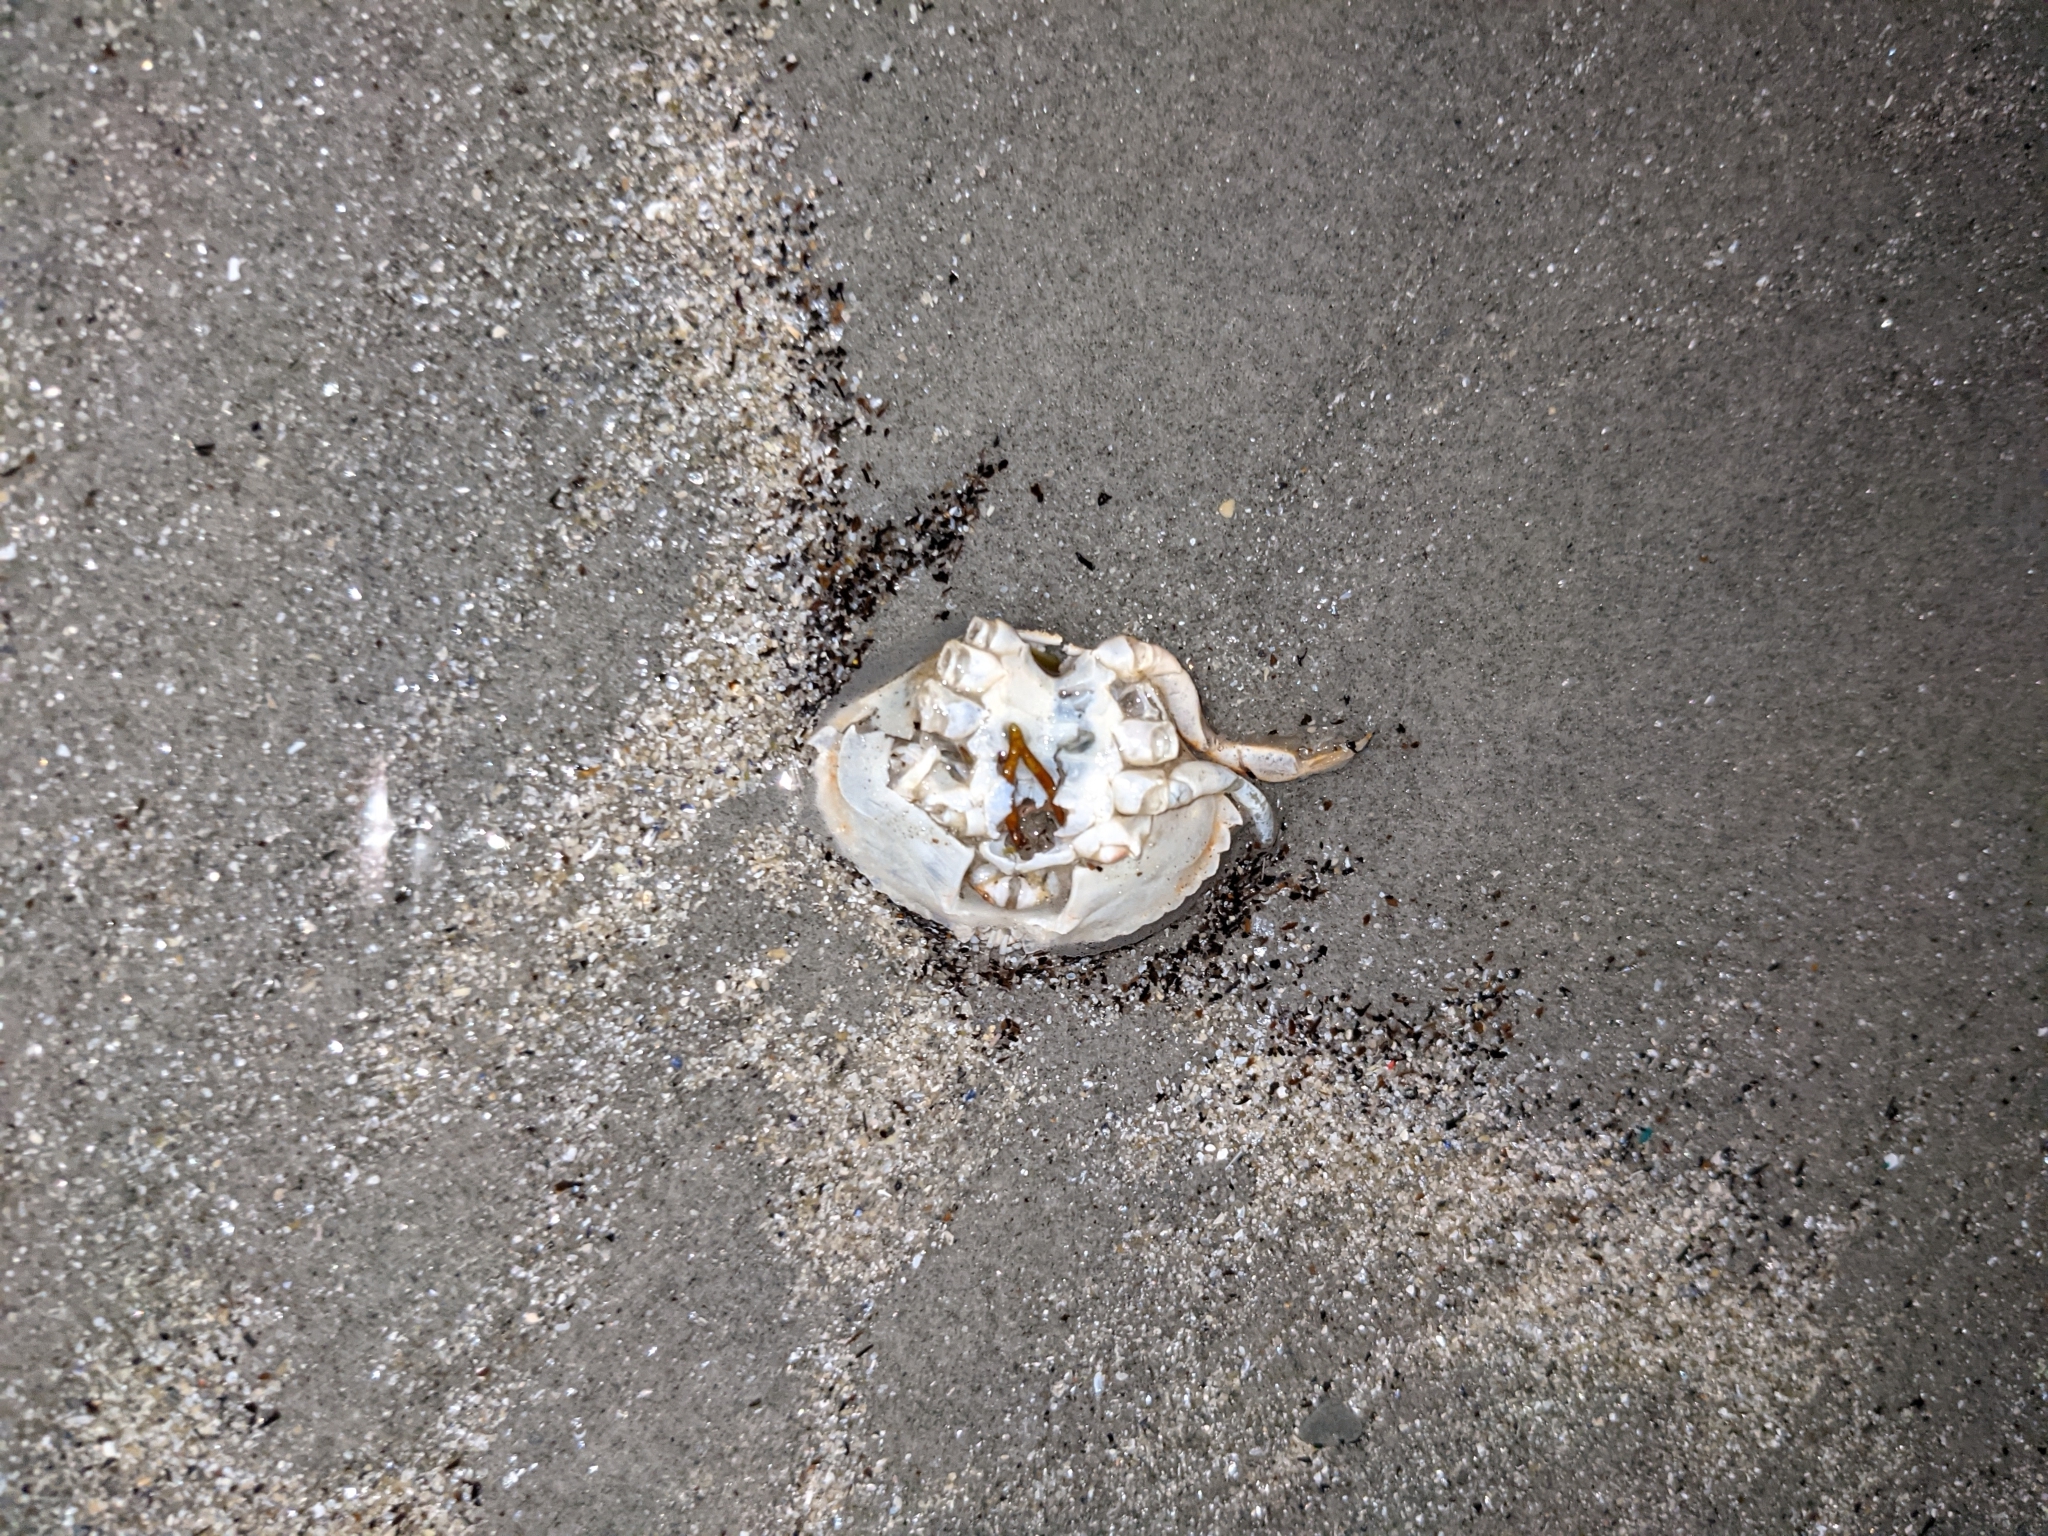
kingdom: Animalia
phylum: Arthropoda
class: Malacostraca
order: Decapoda
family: Cancridae
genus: Cancer
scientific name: Cancer irroratus
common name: Atlantic rock crab
